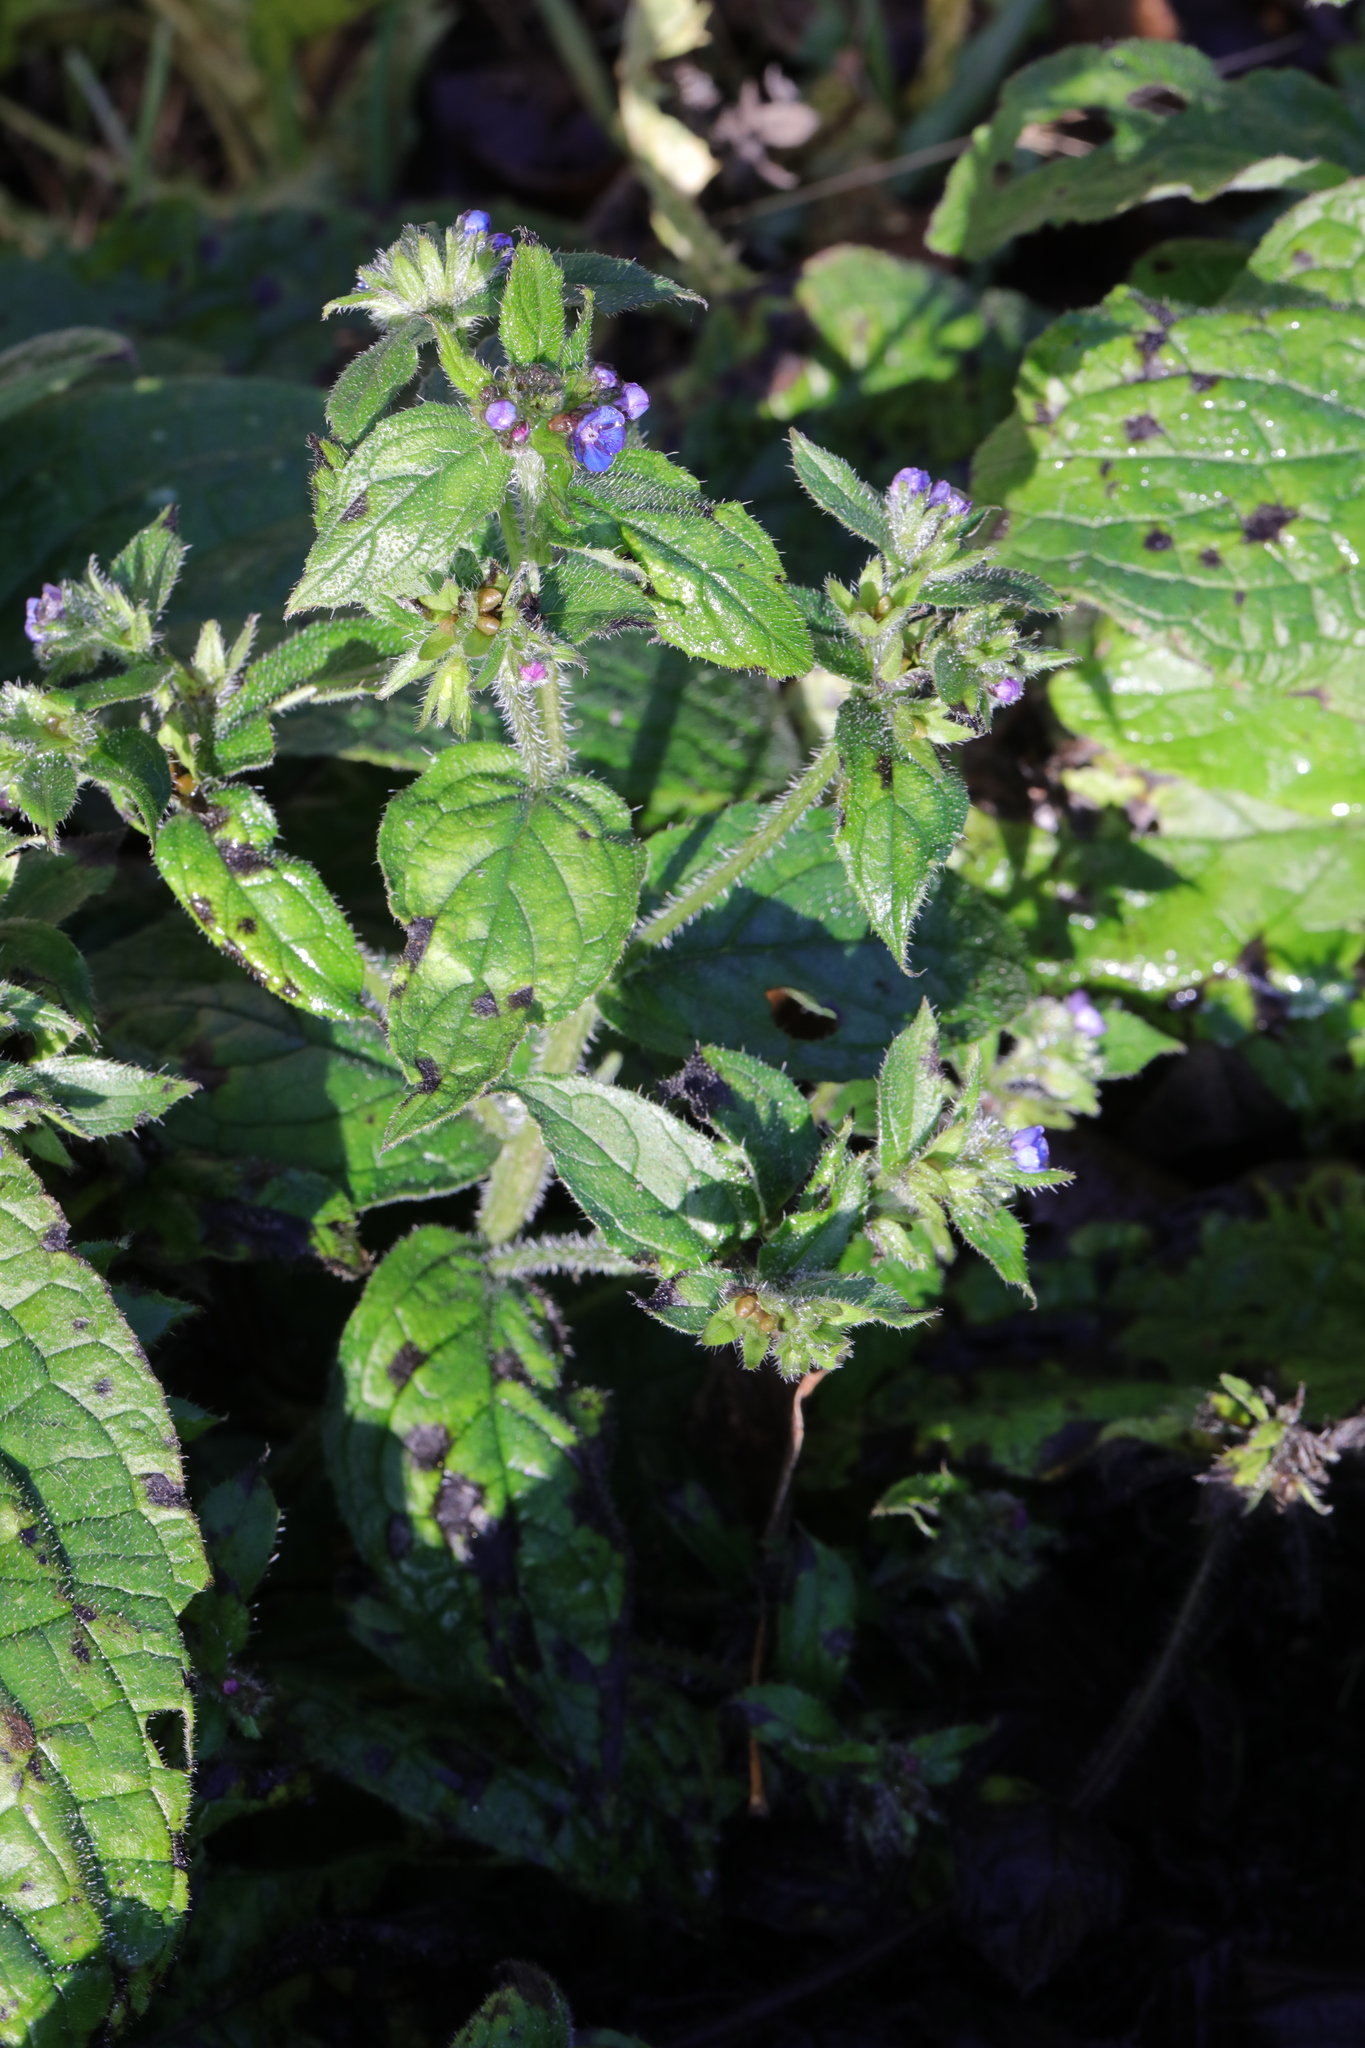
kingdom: Plantae
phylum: Tracheophyta
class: Magnoliopsida
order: Boraginales
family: Boraginaceae
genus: Pentaglottis
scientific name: Pentaglottis sempervirens
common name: Green alkanet
